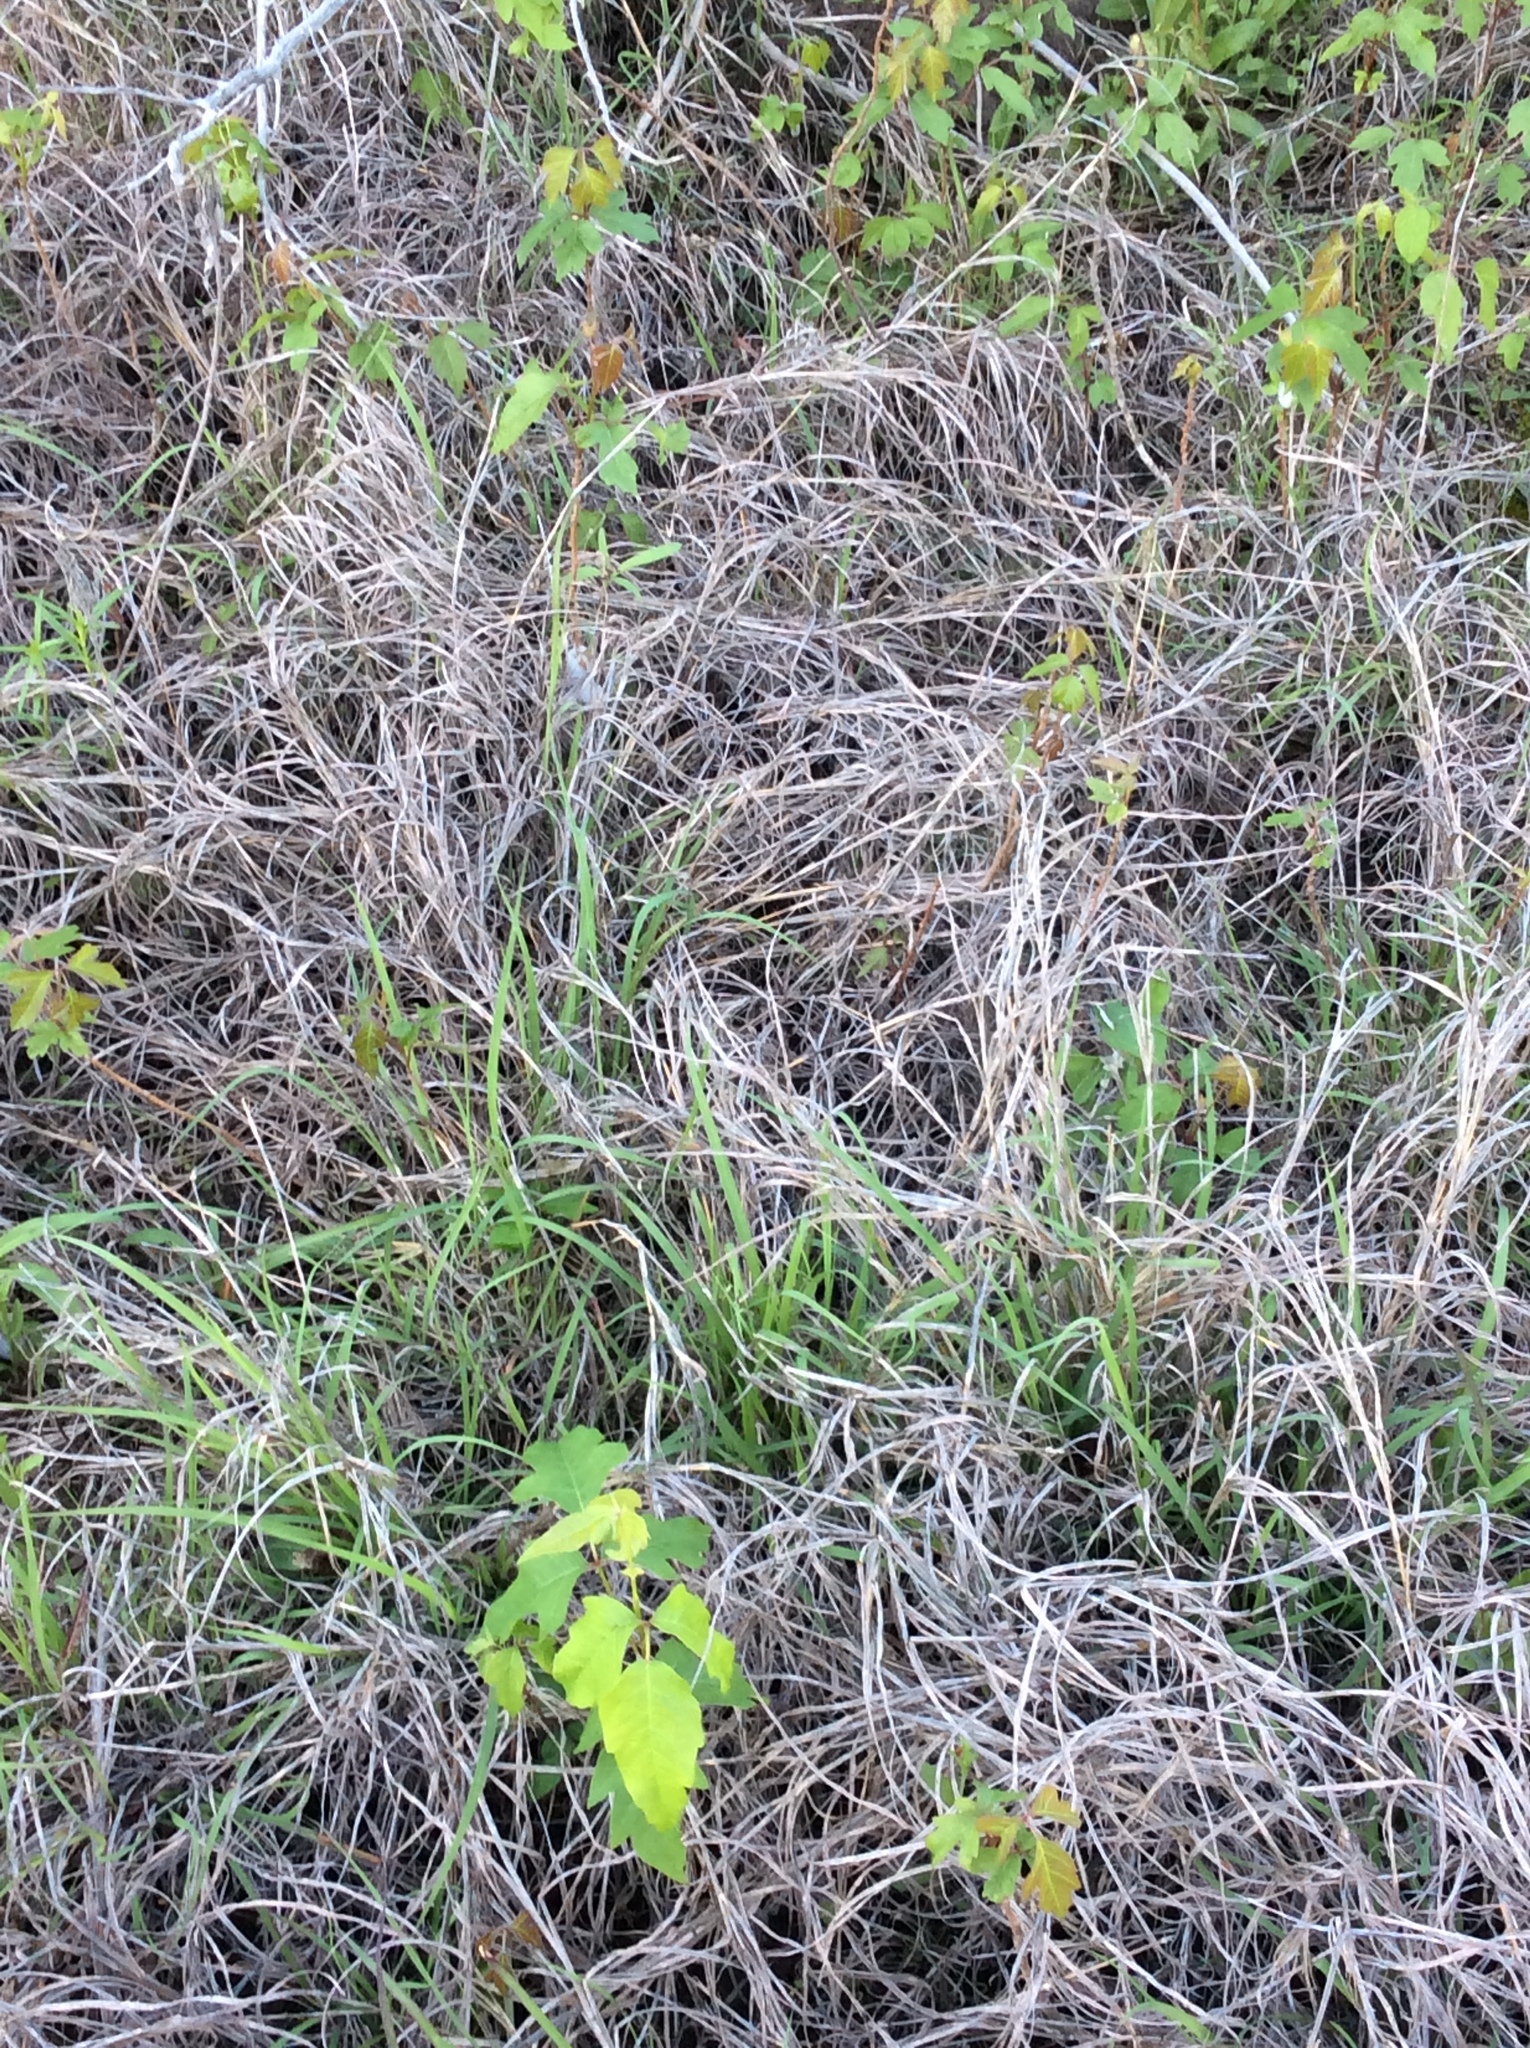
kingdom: Plantae
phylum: Tracheophyta
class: Magnoliopsida
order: Sapindales
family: Anacardiaceae
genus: Toxicodendron
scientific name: Toxicodendron radicans
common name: Poison ivy
